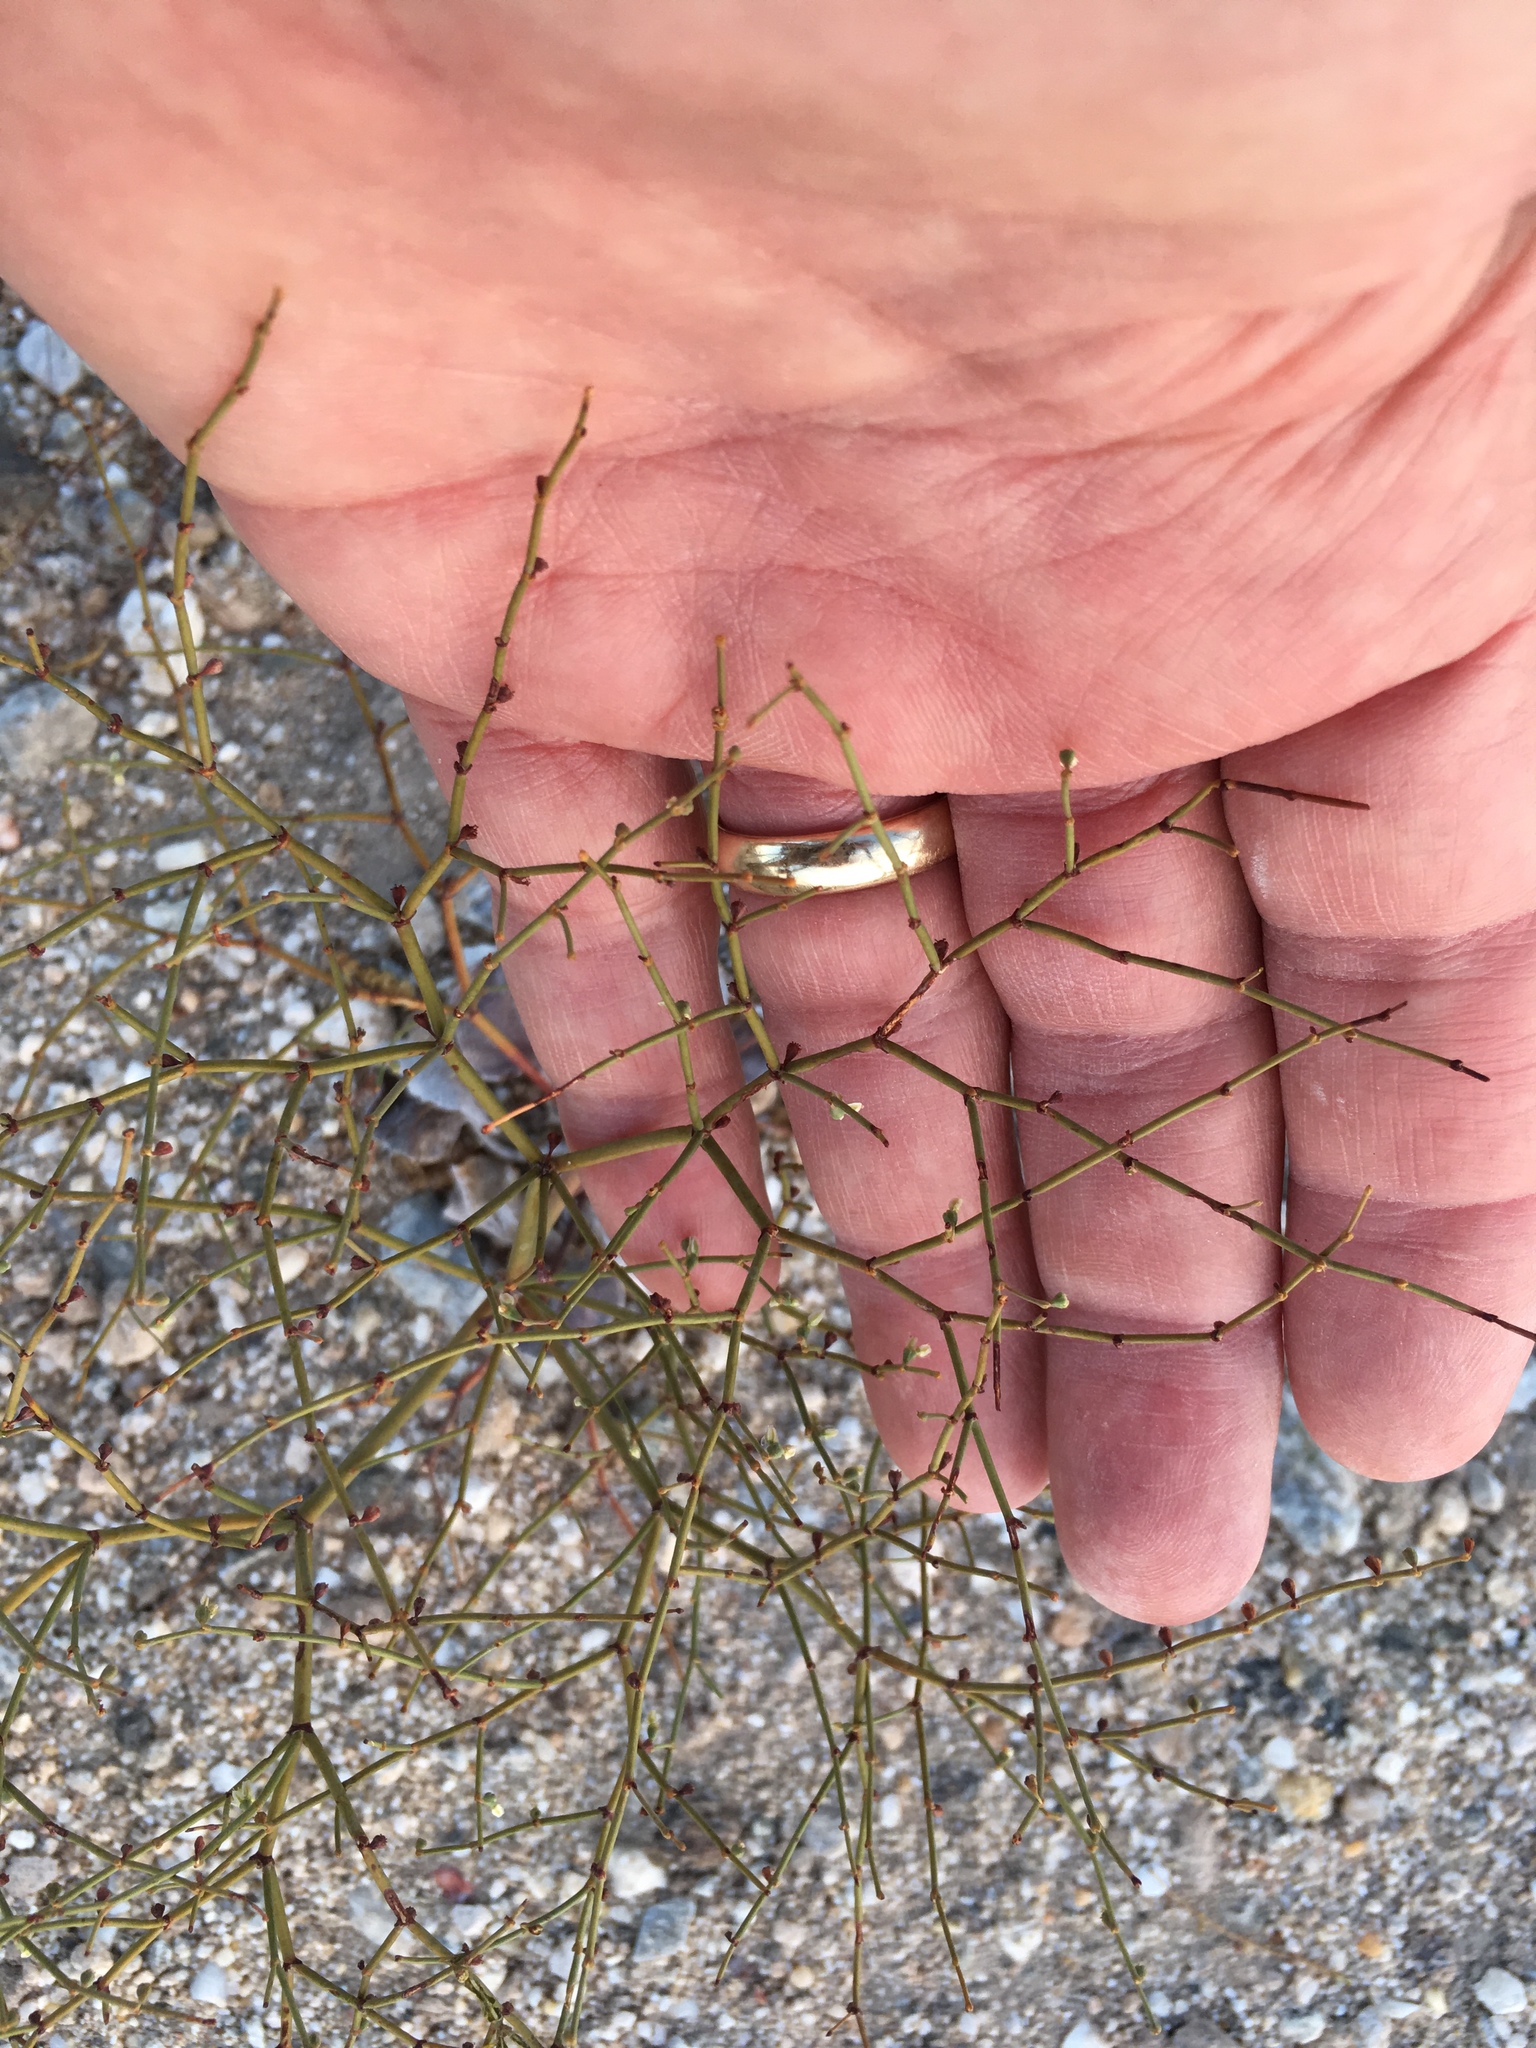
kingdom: Plantae
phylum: Tracheophyta
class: Magnoliopsida
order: Caryophyllales
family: Polygonaceae
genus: Eriogonum
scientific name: Eriogonum deflexum
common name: Skeleton-weed
